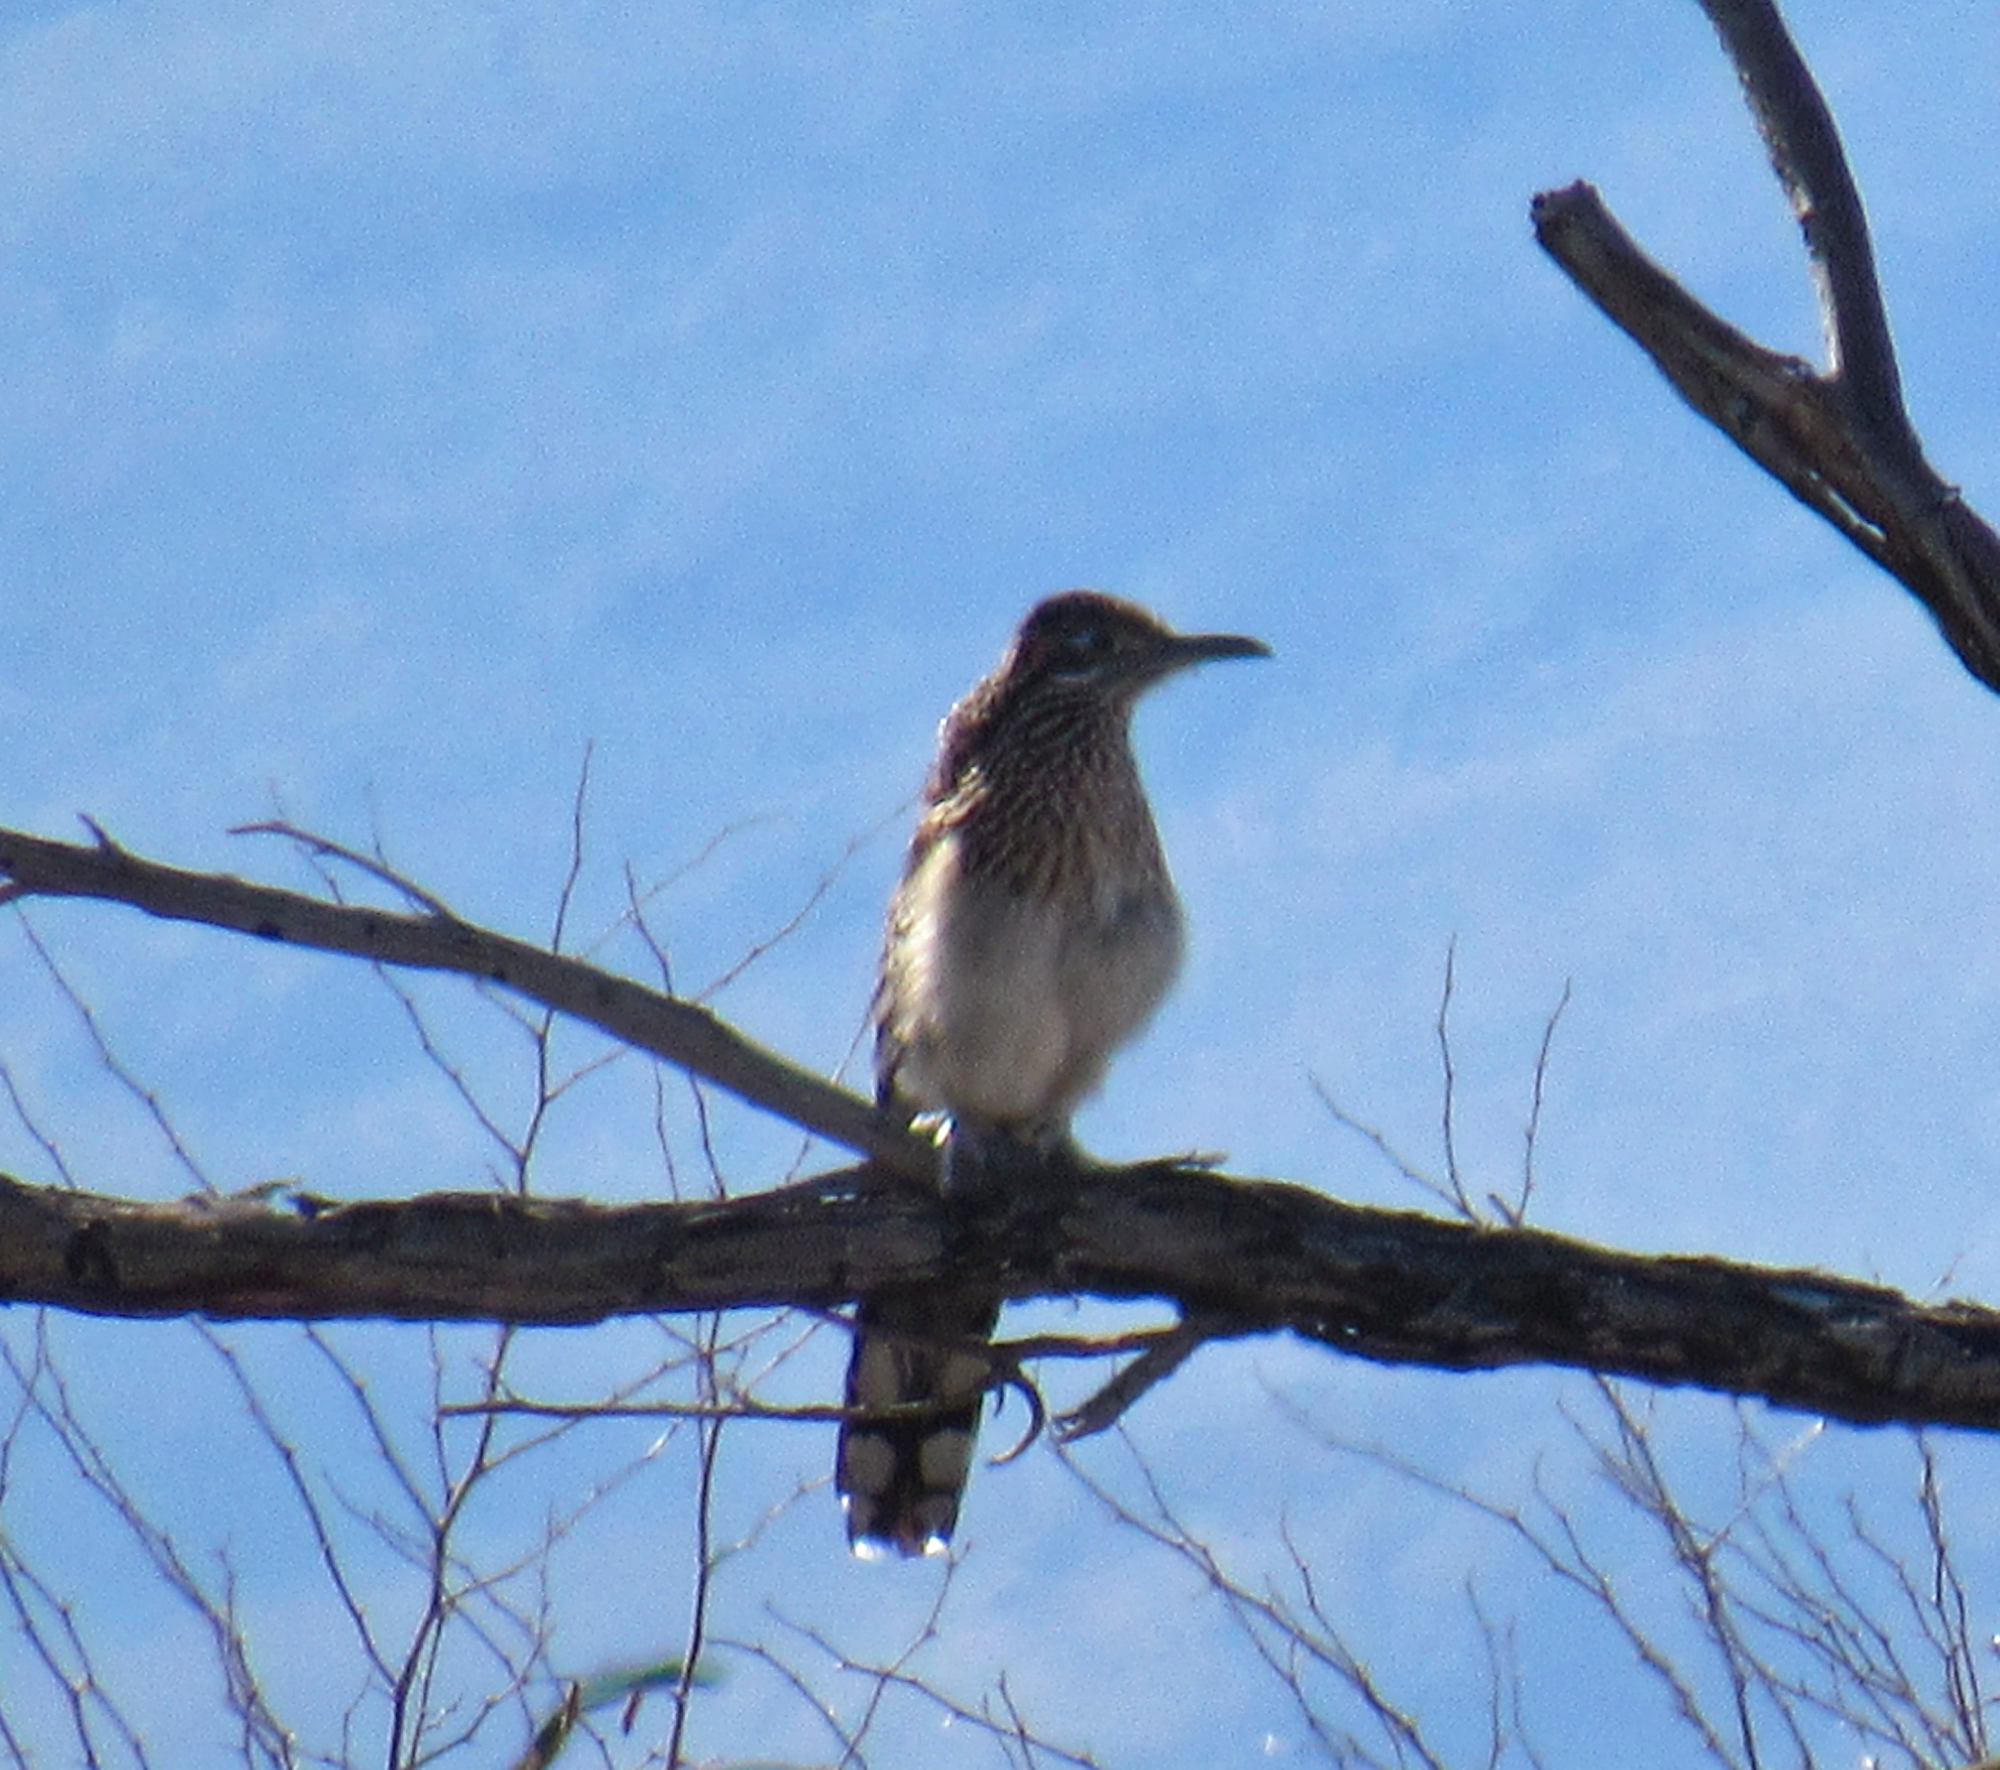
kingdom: Animalia
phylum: Chordata
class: Aves
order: Cuculiformes
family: Cuculidae
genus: Geococcyx
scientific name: Geococcyx californianus
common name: Greater roadrunner
